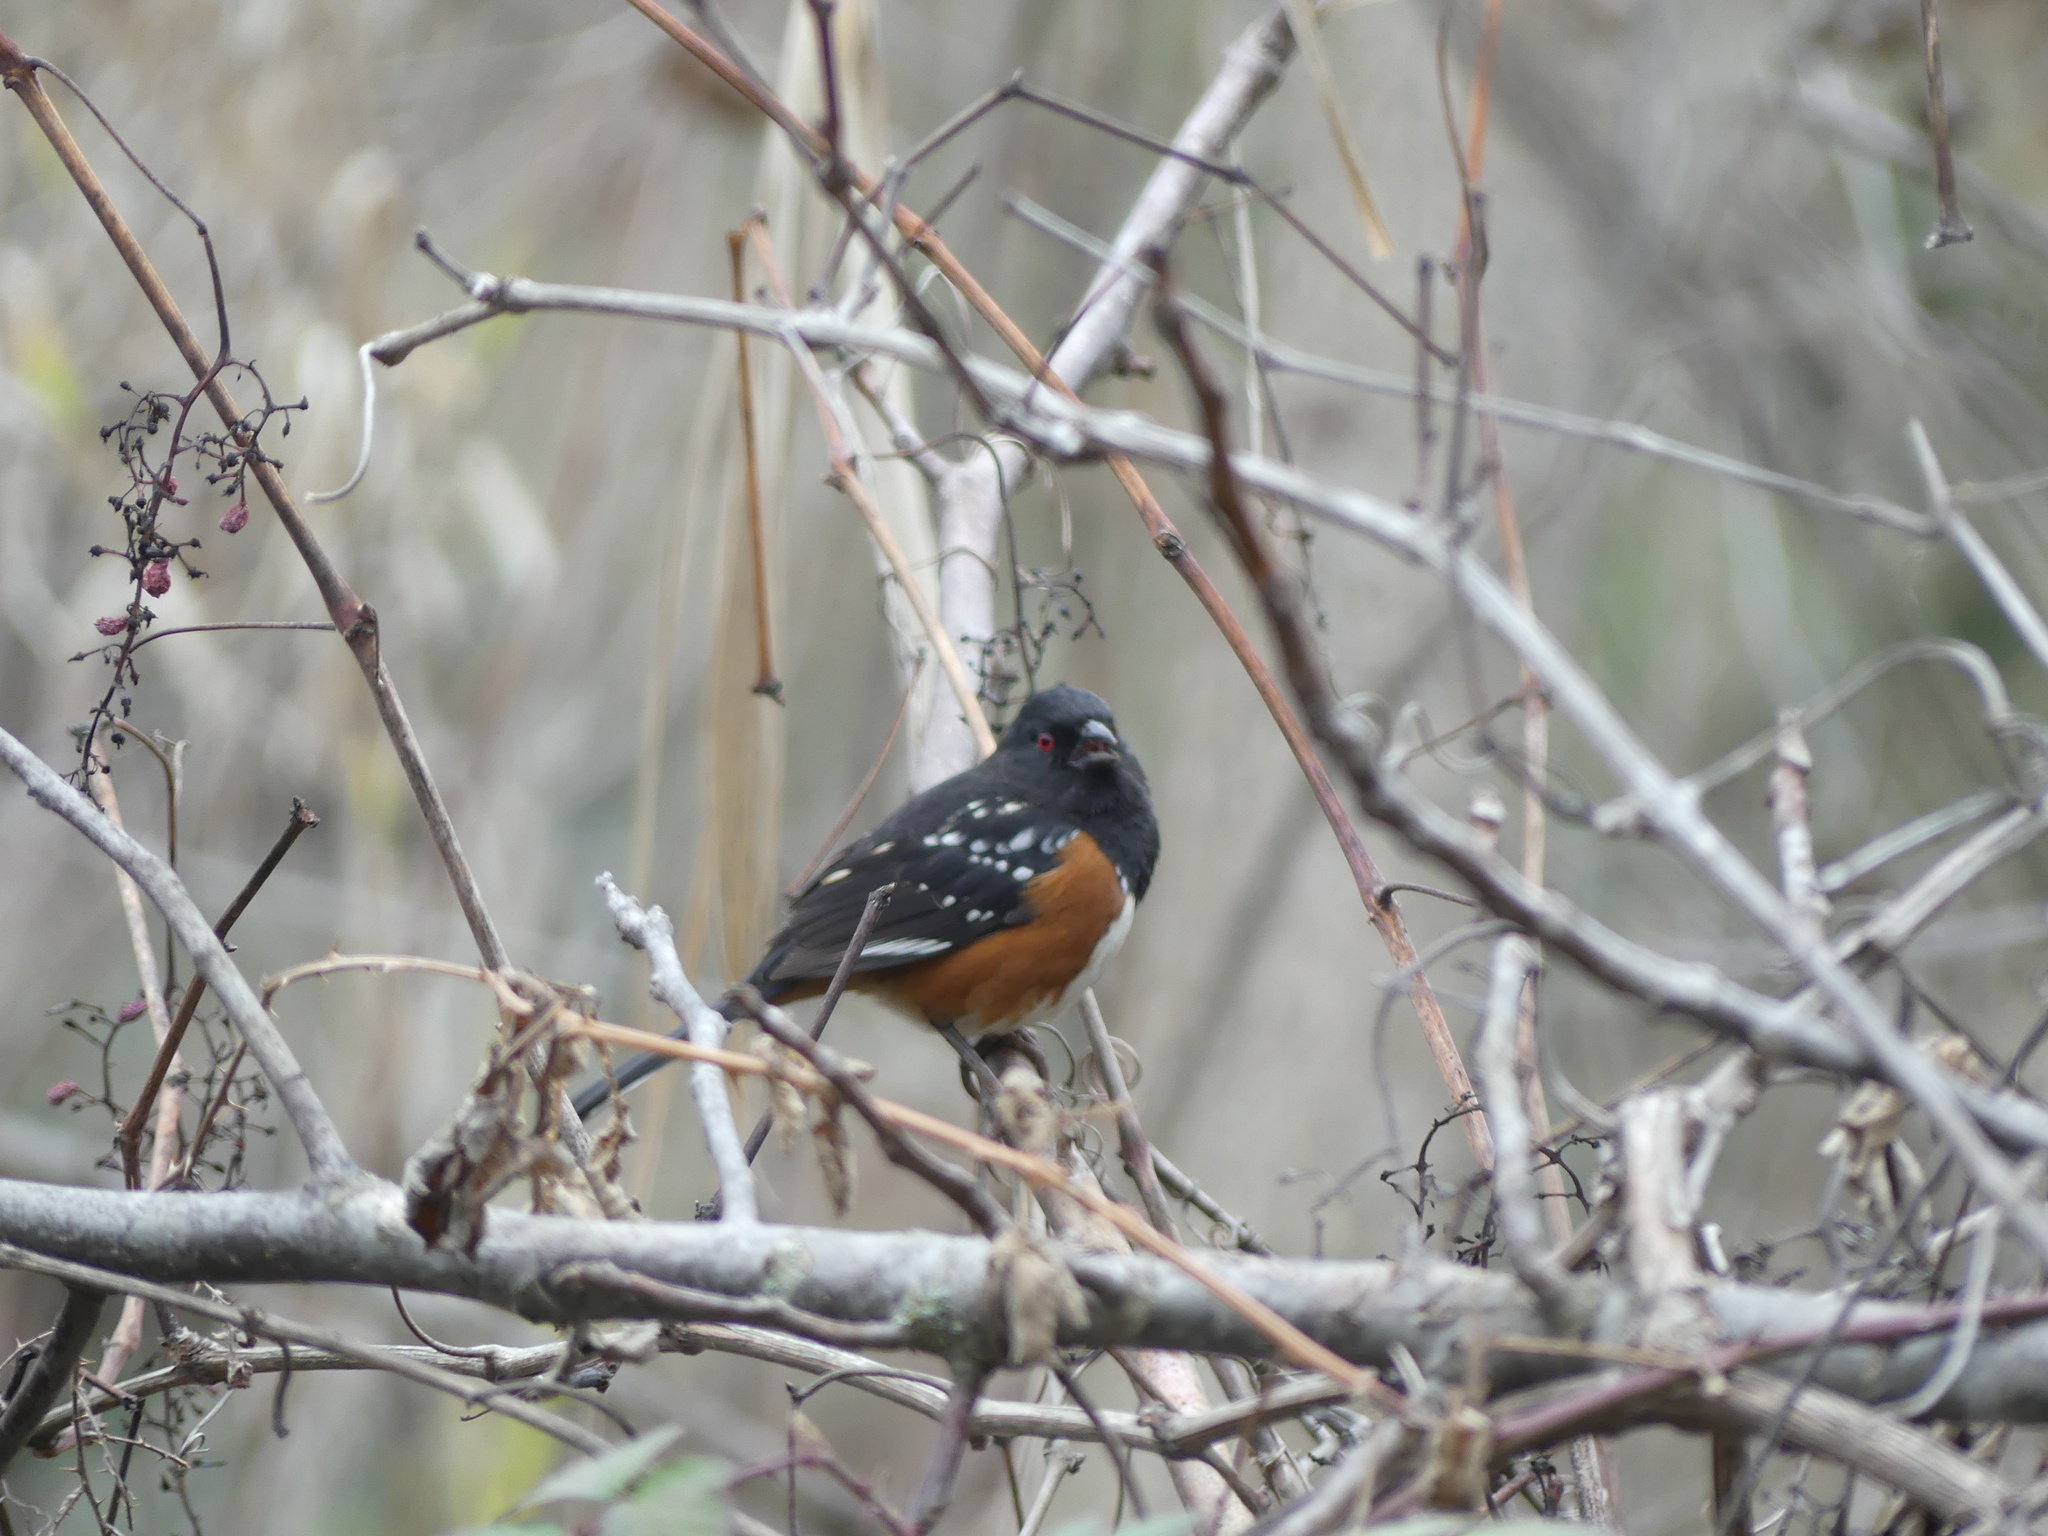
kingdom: Animalia
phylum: Chordata
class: Aves
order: Passeriformes
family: Passerellidae
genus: Pipilo
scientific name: Pipilo maculatus
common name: Spotted towhee
